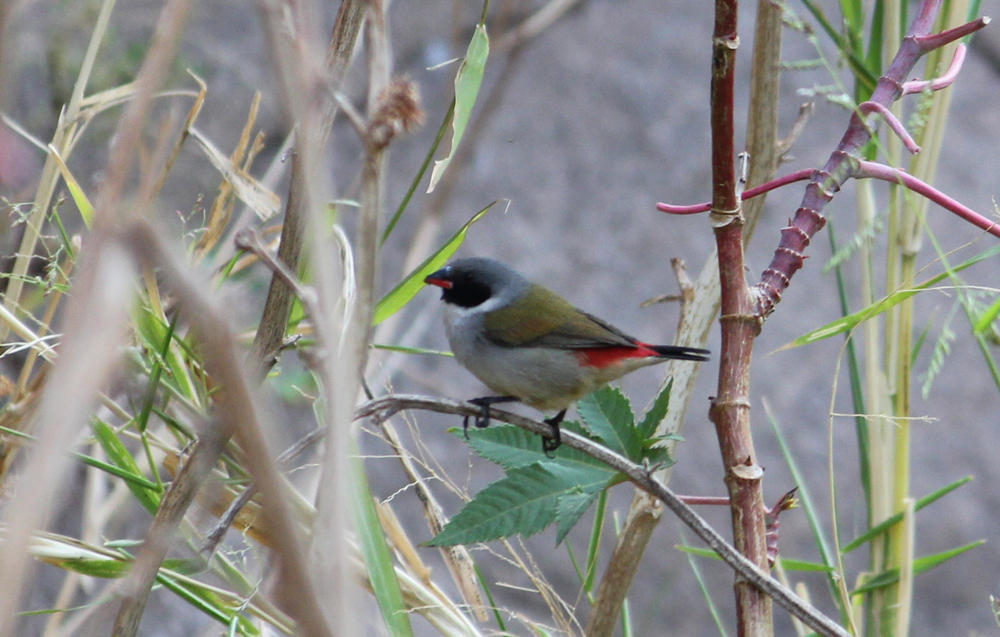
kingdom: Animalia
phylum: Chordata
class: Aves
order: Passeriformes
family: Estrildidae
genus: Coccopygia
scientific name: Coccopygia melanotis
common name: Swee waxbill
